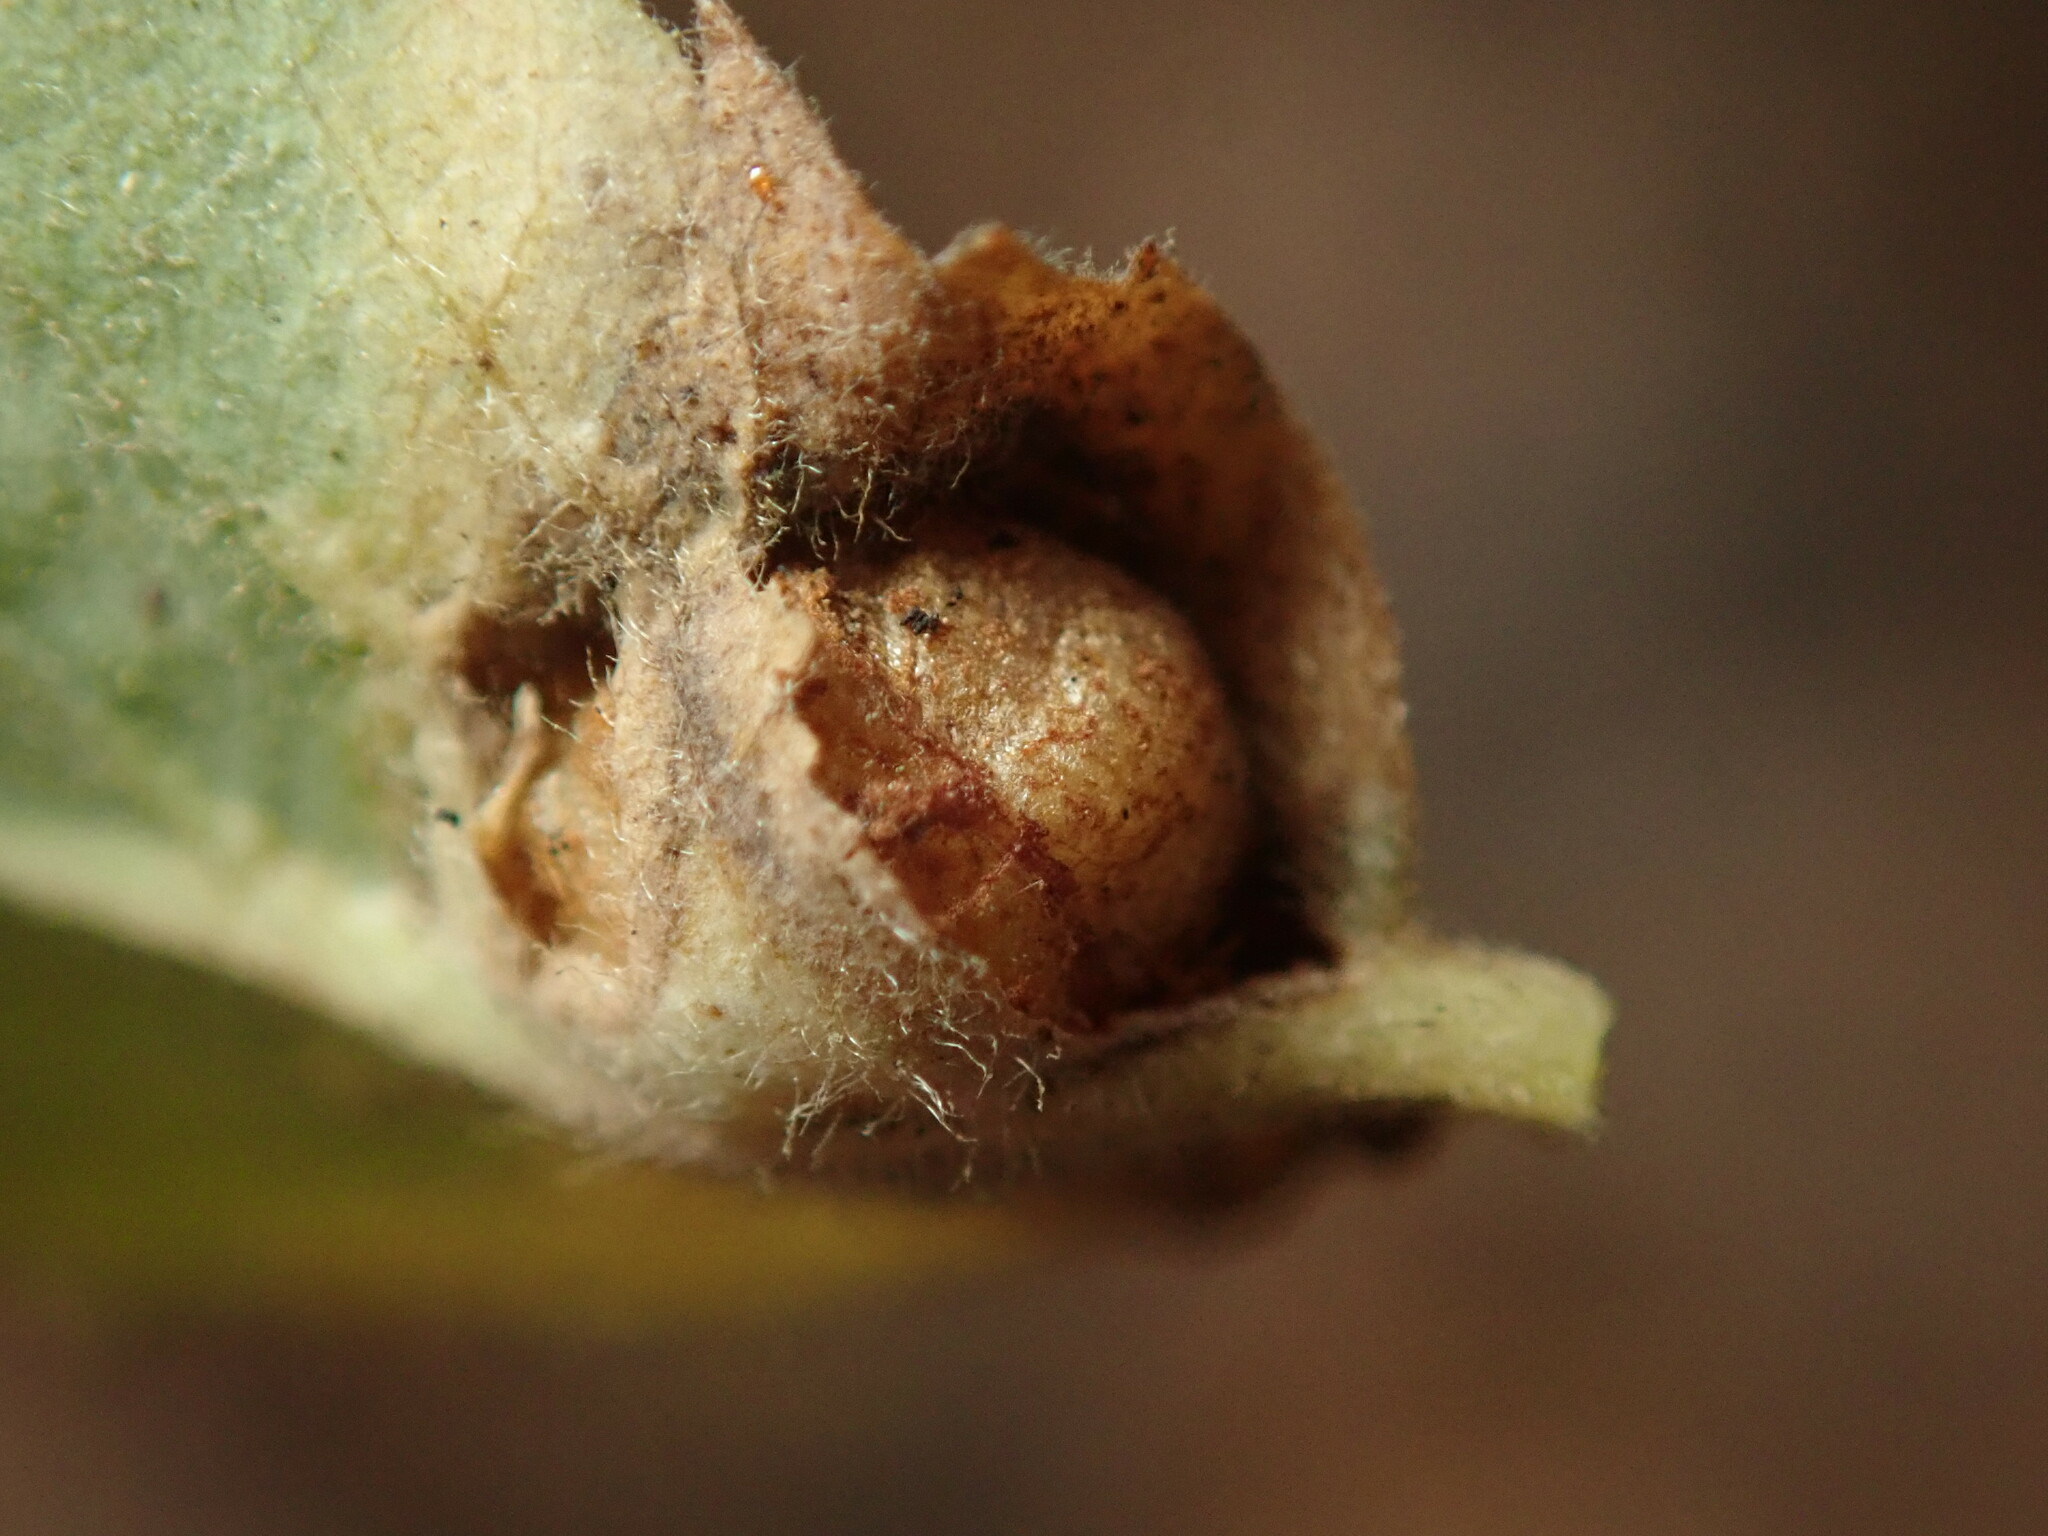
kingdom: Animalia
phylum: Arthropoda
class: Insecta
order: Hymenoptera
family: Cynipidae
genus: Diplolepis
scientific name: Diplolepis rosaefolii
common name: Blister-gall wasp
